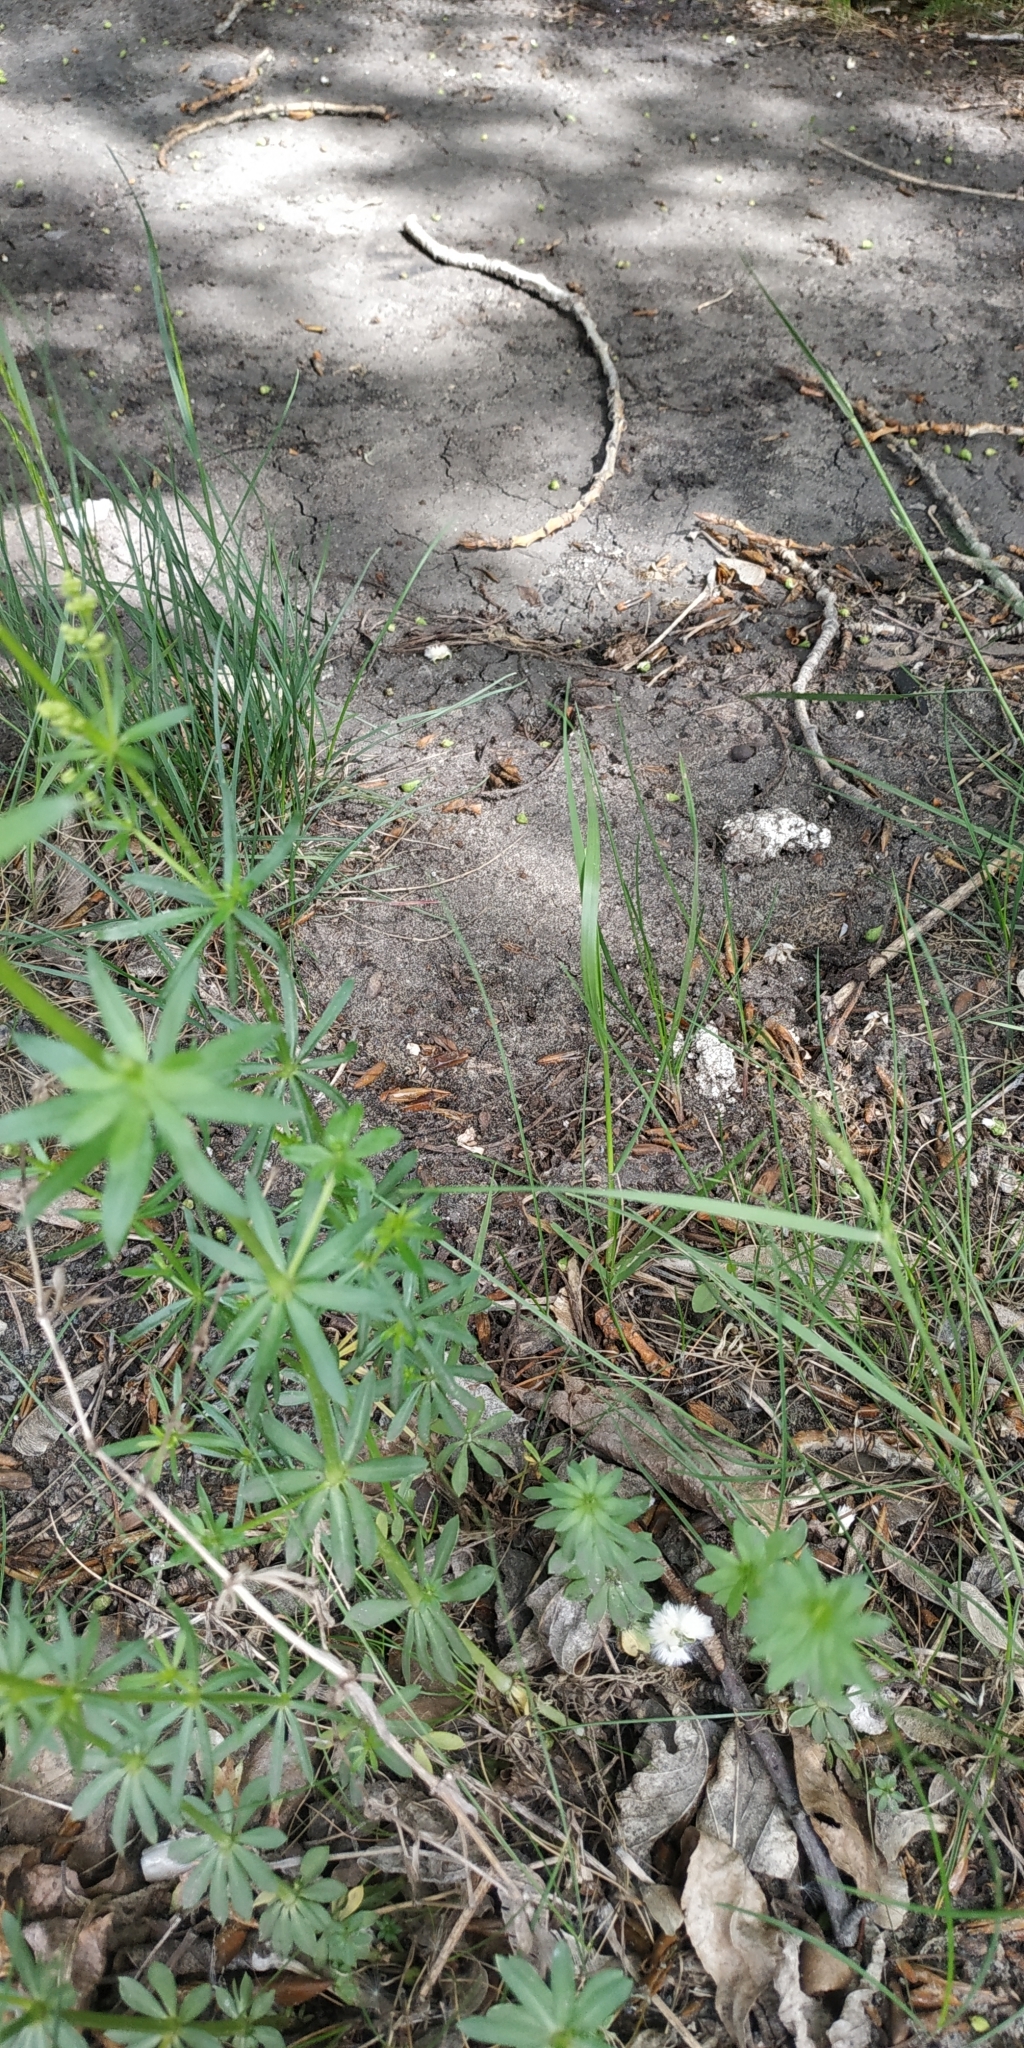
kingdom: Plantae
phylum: Tracheophyta
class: Magnoliopsida
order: Gentianales
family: Rubiaceae
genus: Galium
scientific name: Galium mollugo
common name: Hedge bedstraw
